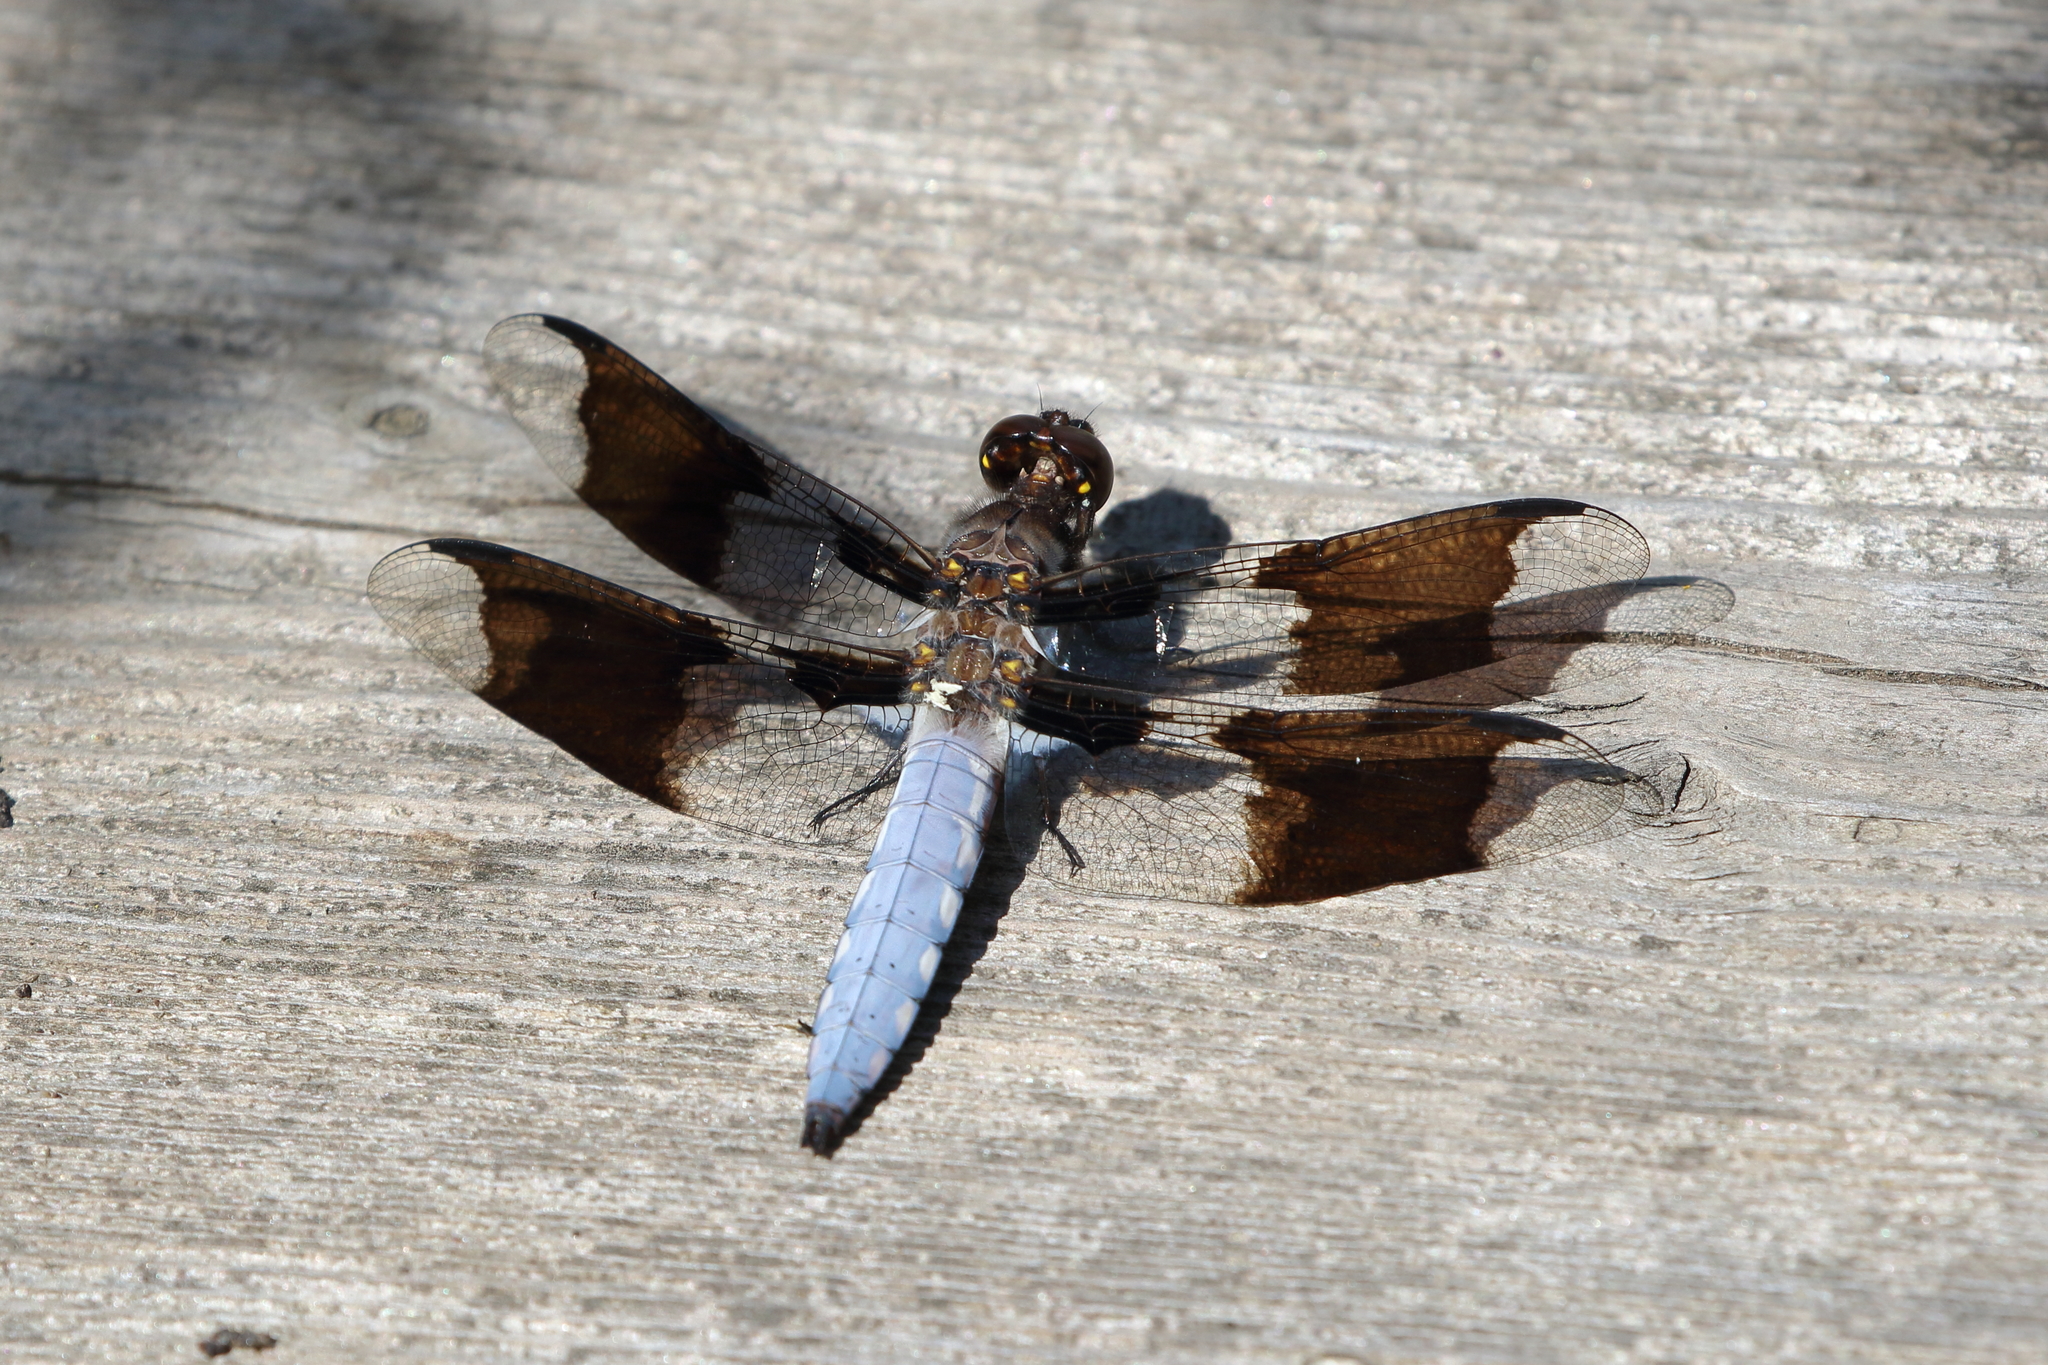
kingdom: Animalia
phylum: Arthropoda
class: Insecta
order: Odonata
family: Libellulidae
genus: Plathemis
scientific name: Plathemis lydia
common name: Common whitetail
